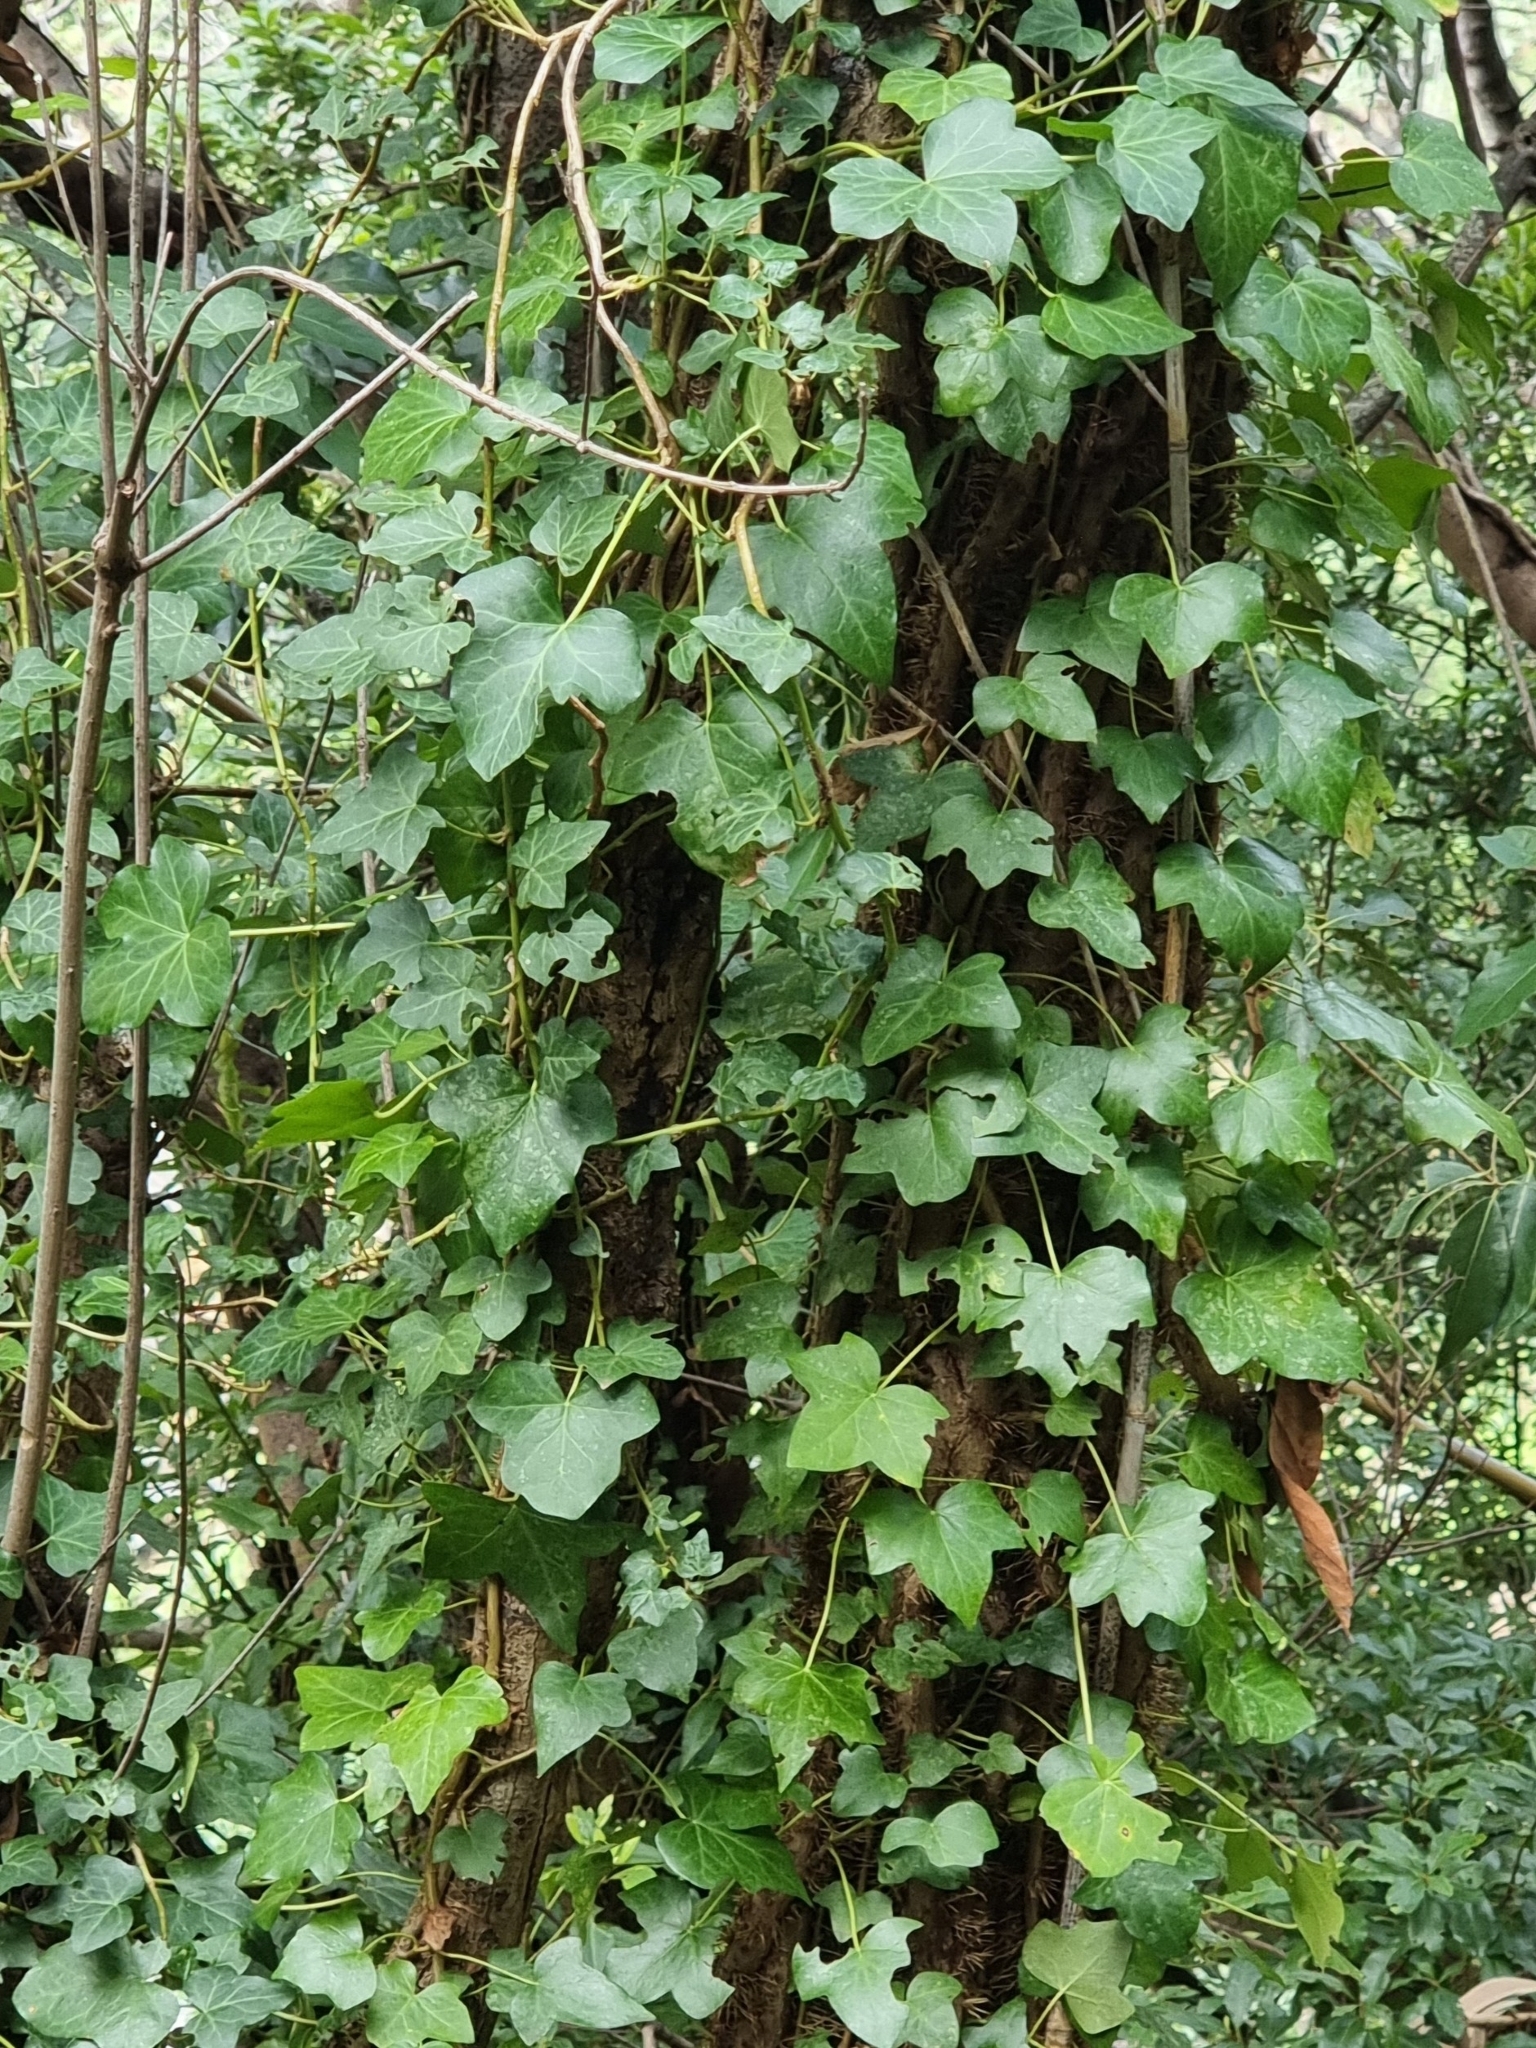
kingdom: Plantae
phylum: Tracheophyta
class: Magnoliopsida
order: Apiales
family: Araliaceae
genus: Hedera
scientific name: Hedera maderensis
